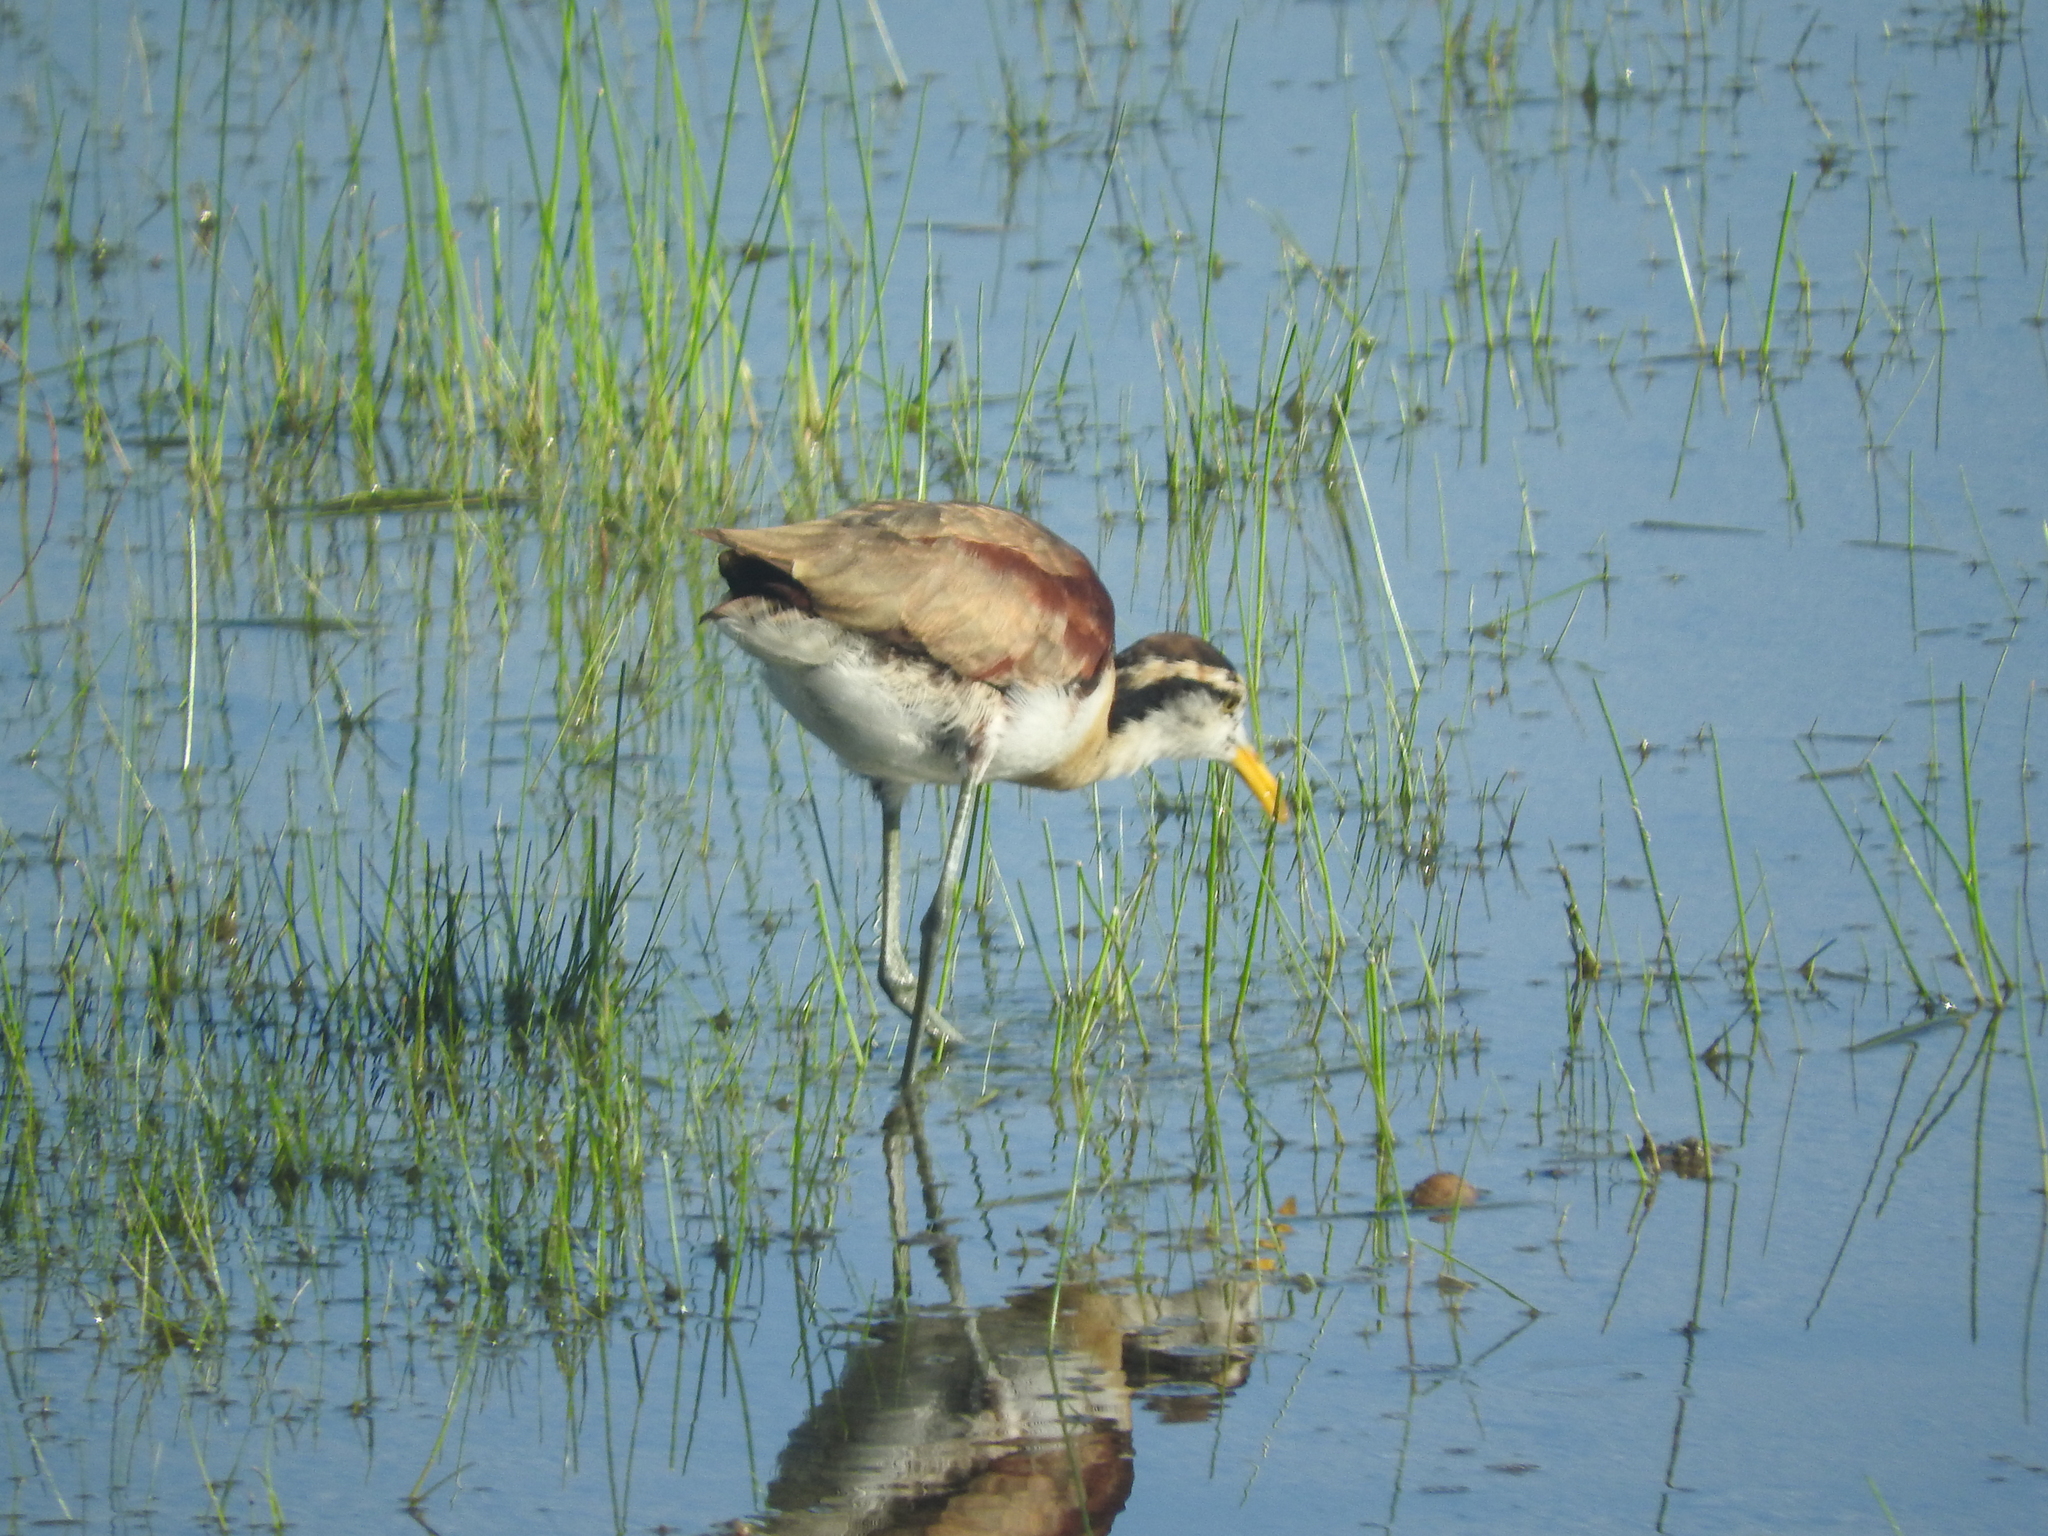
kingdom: Animalia
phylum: Chordata
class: Aves
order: Charadriiformes
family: Jacanidae
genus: Jacana
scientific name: Jacana spinosa
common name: Northern jacana
